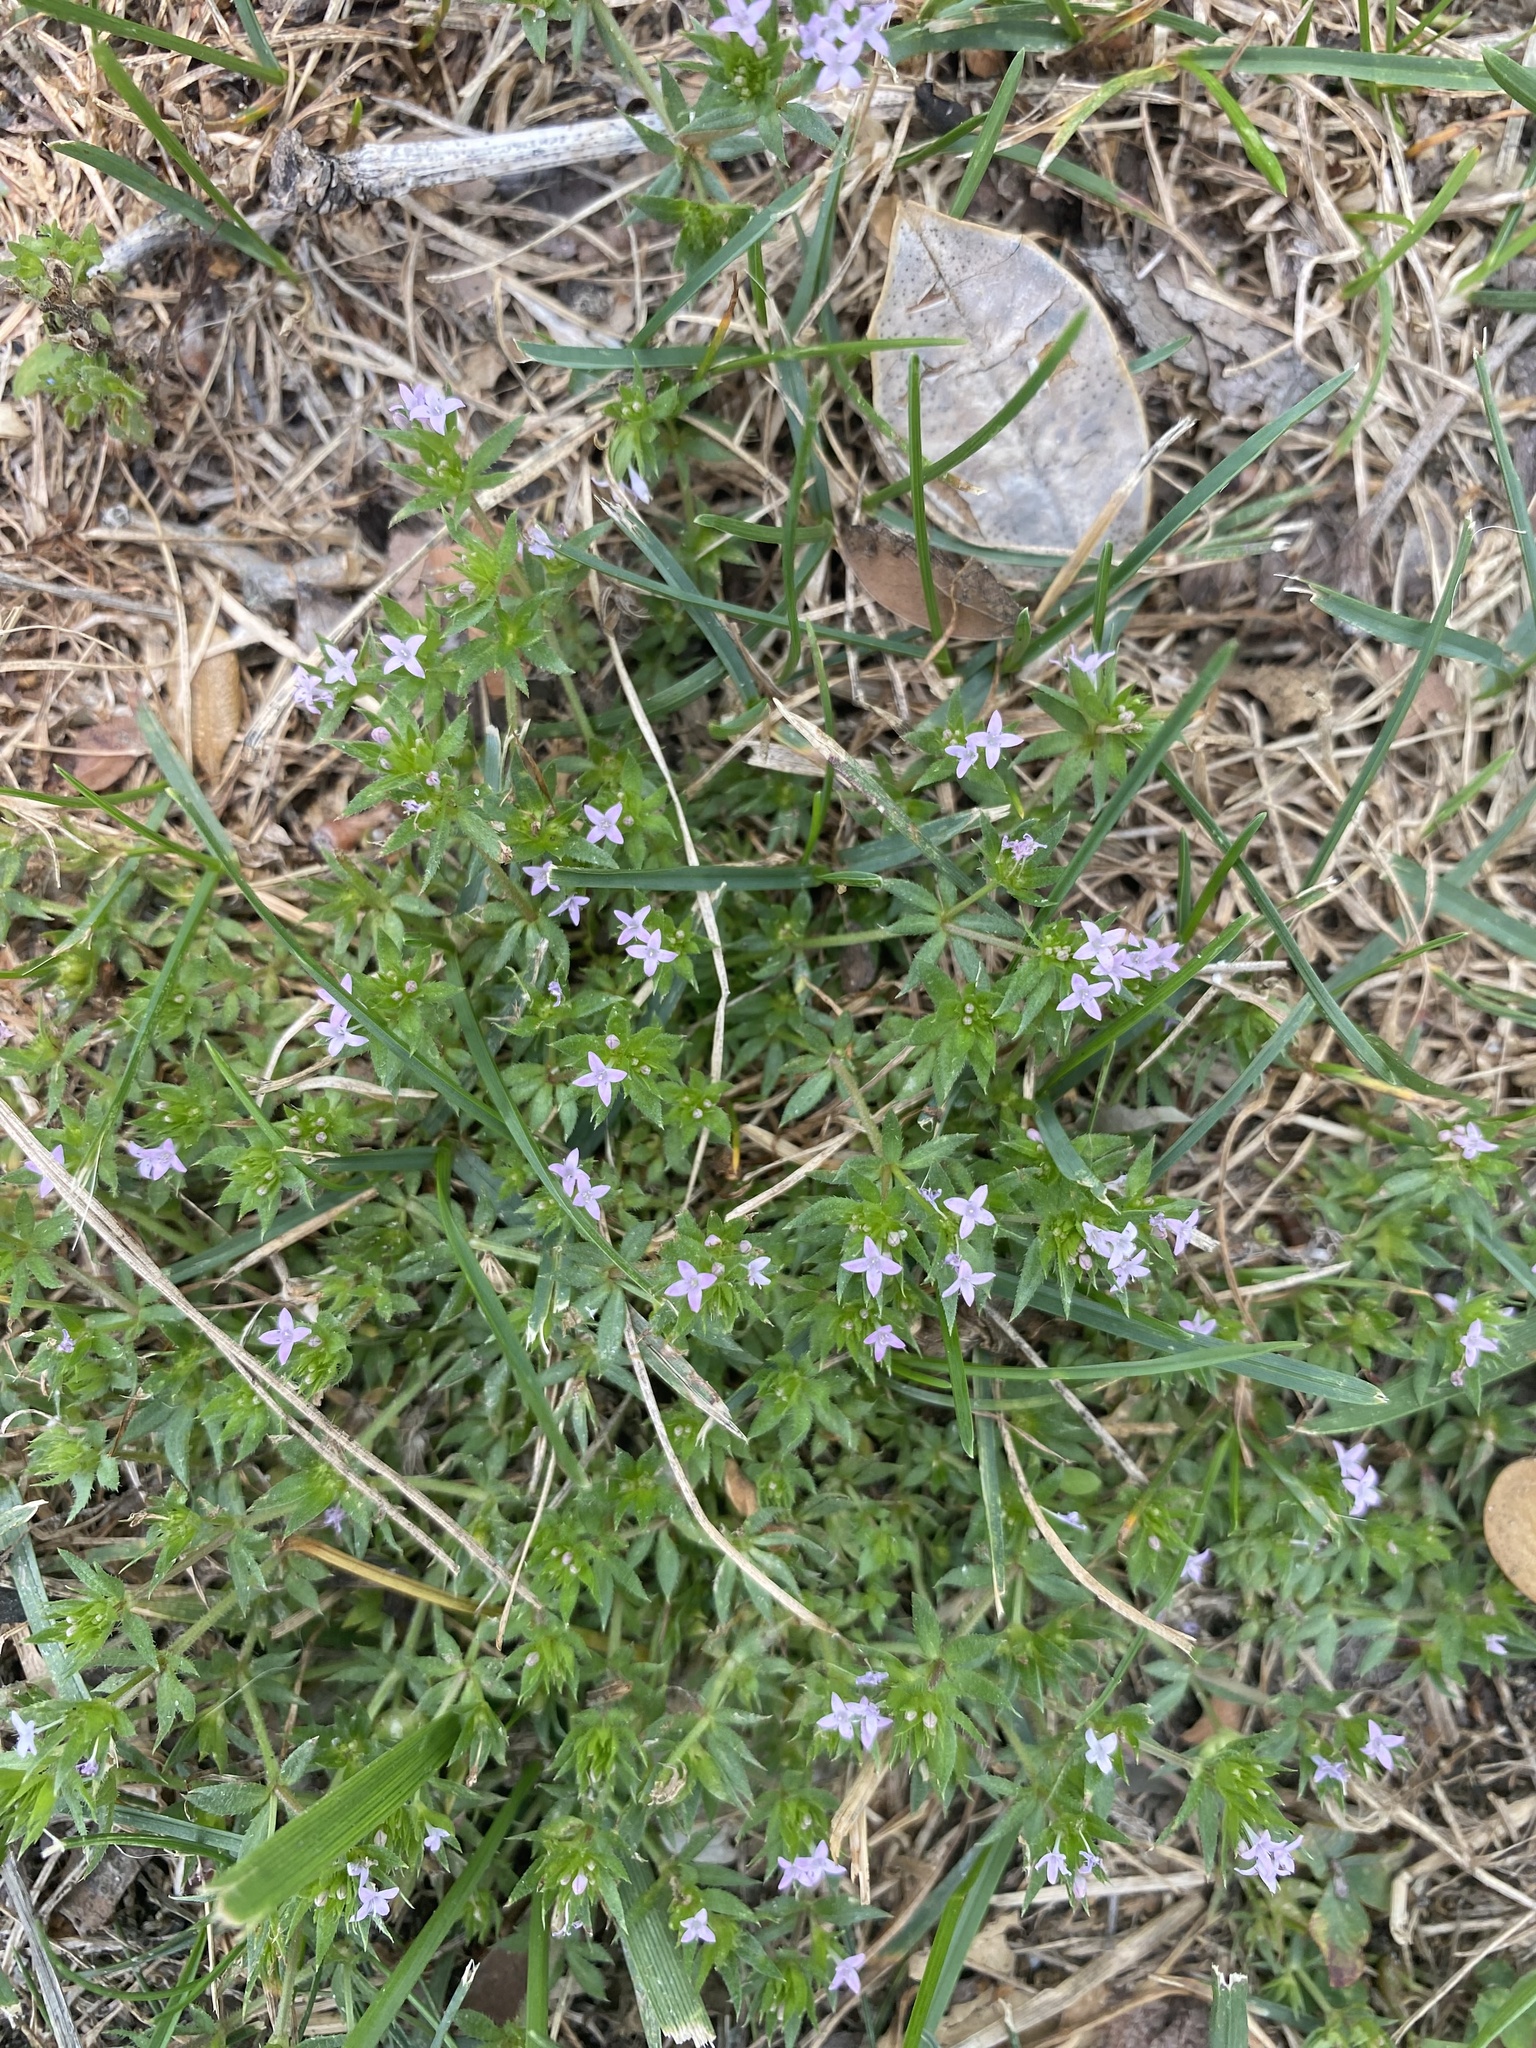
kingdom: Plantae
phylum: Tracheophyta
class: Magnoliopsida
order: Gentianales
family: Rubiaceae
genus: Sherardia
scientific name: Sherardia arvensis
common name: Field madder
